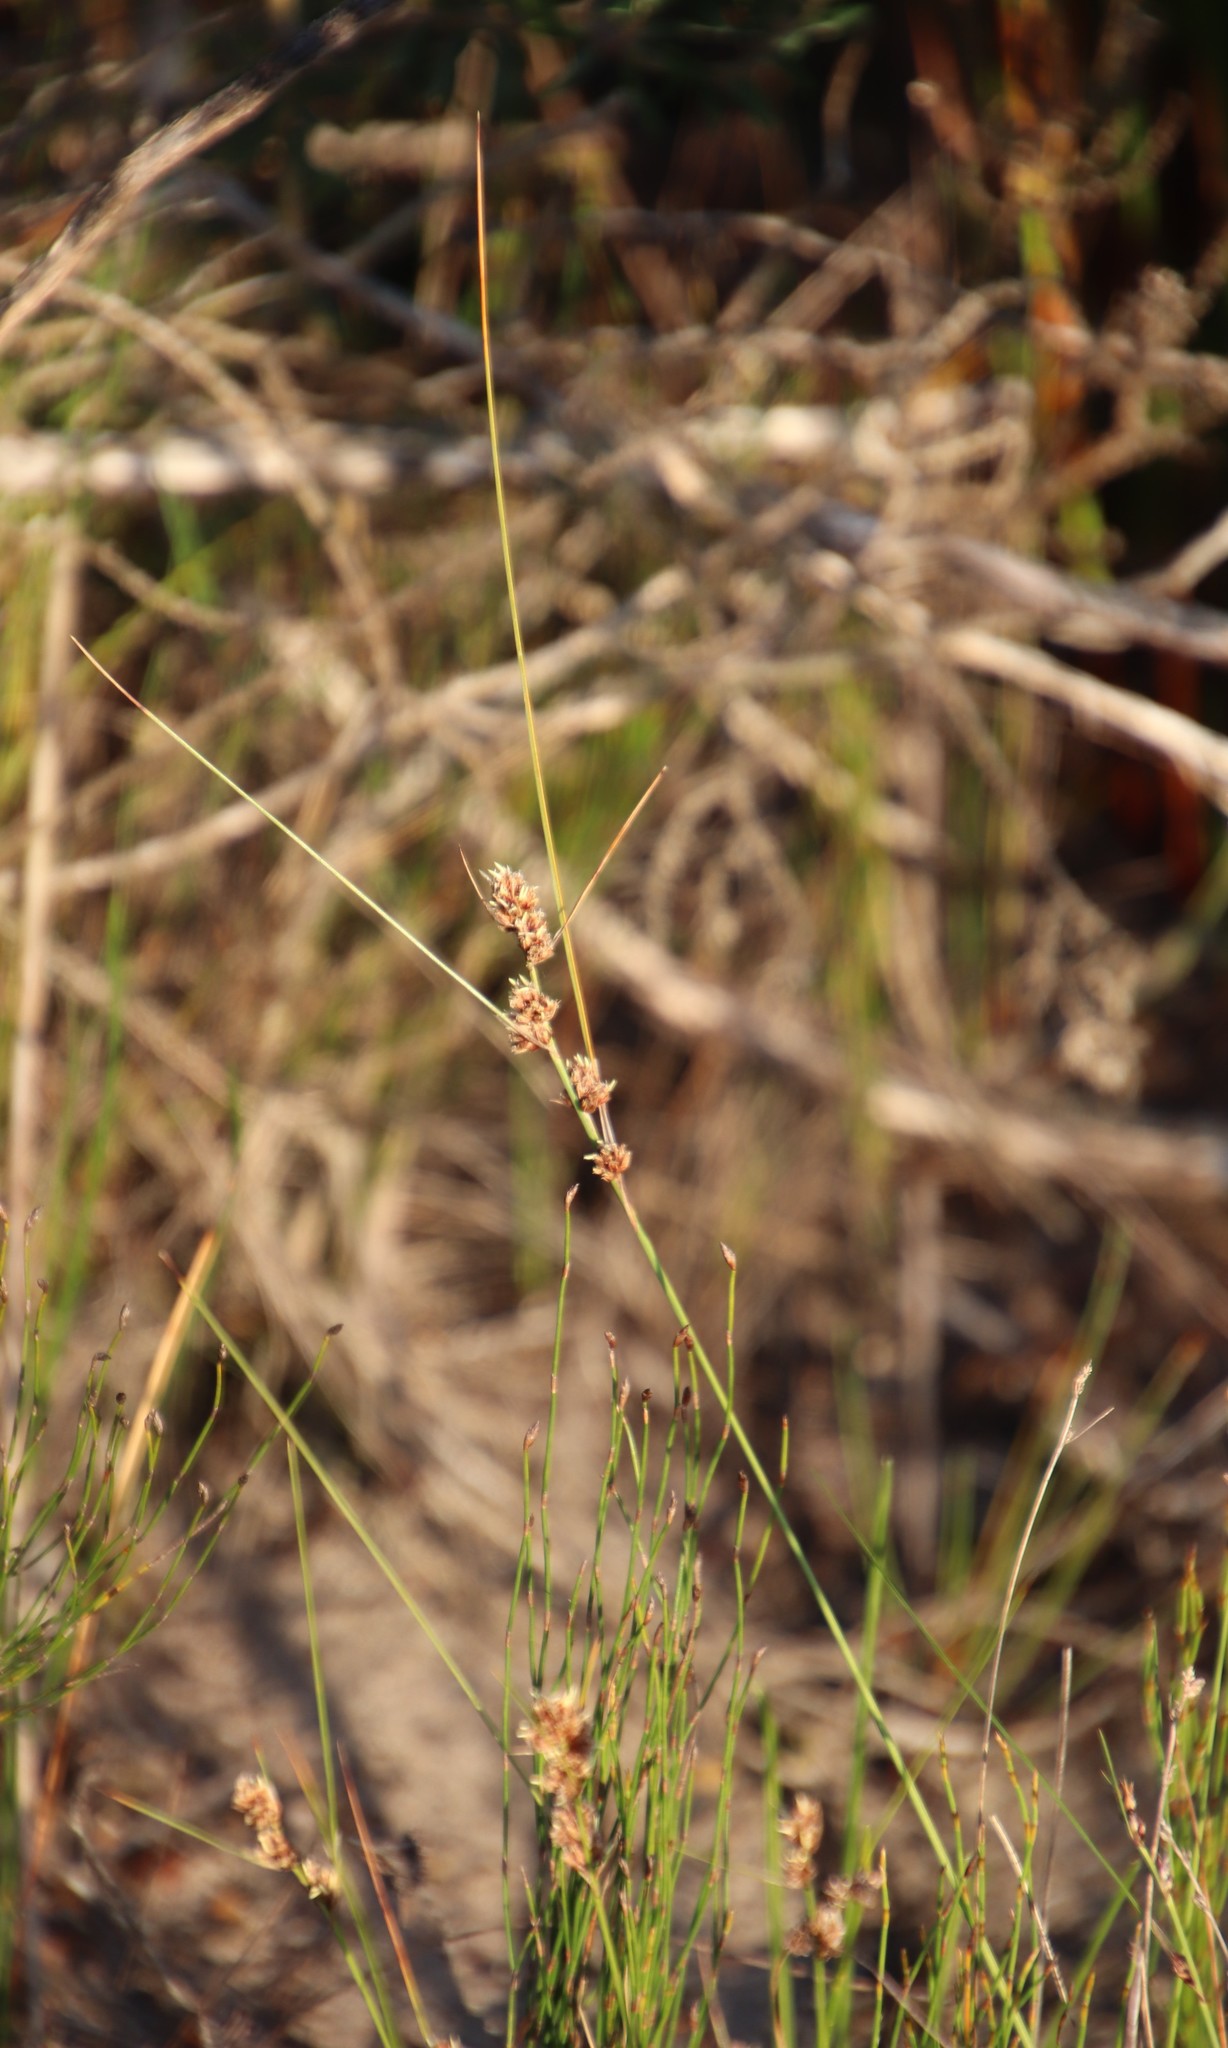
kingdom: Plantae
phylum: Tracheophyta
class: Liliopsida
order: Poales
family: Cyperaceae
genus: Ficinia
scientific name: Ficinia bulbosa
